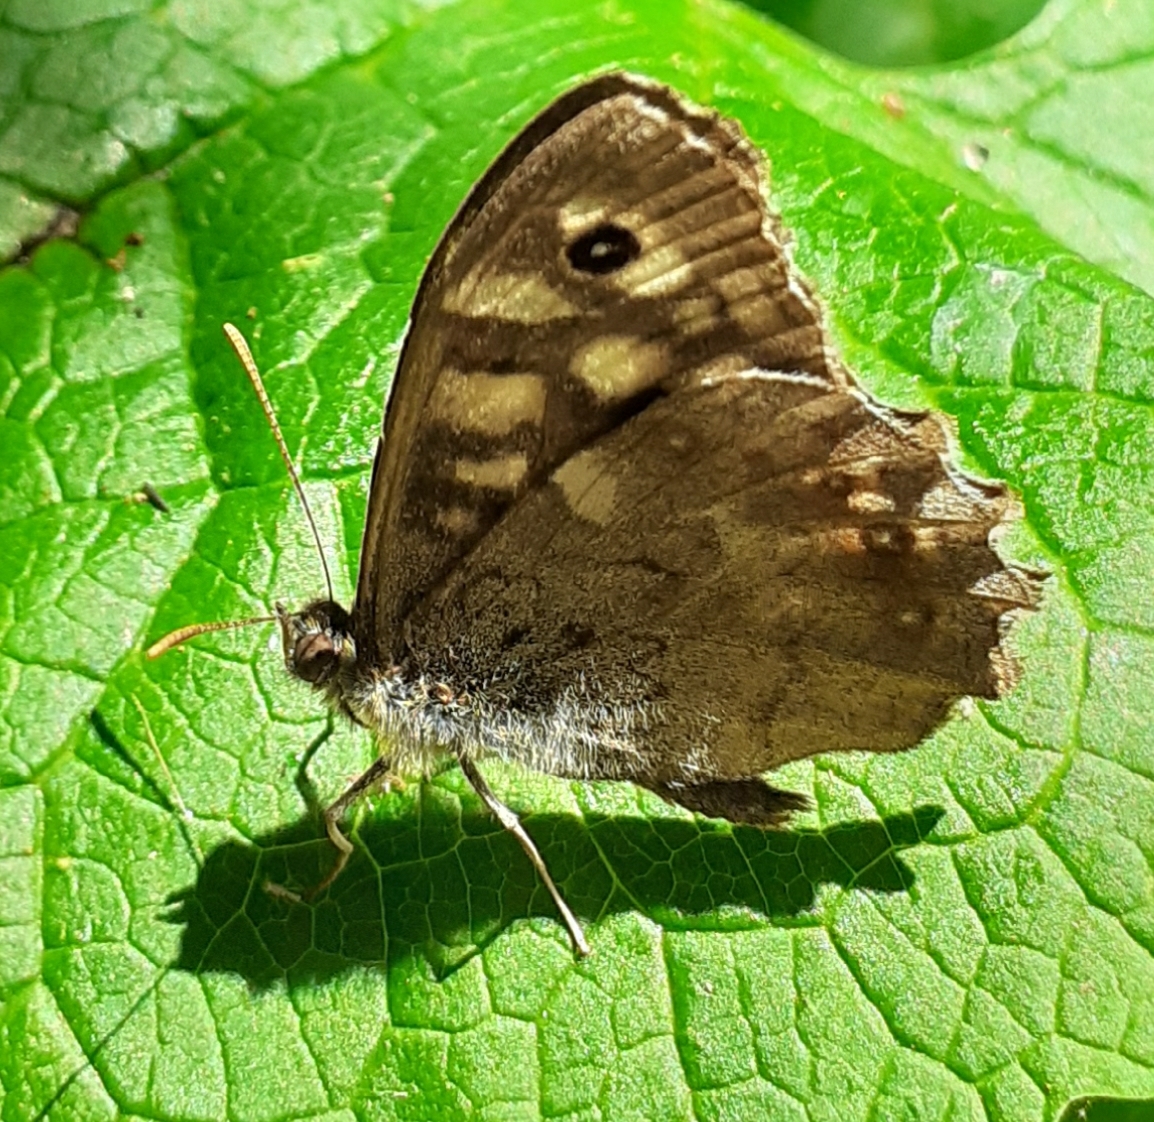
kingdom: Animalia
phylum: Arthropoda
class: Insecta
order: Lepidoptera
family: Nymphalidae
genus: Pararge
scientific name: Pararge aegeria
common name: Speckled wood
